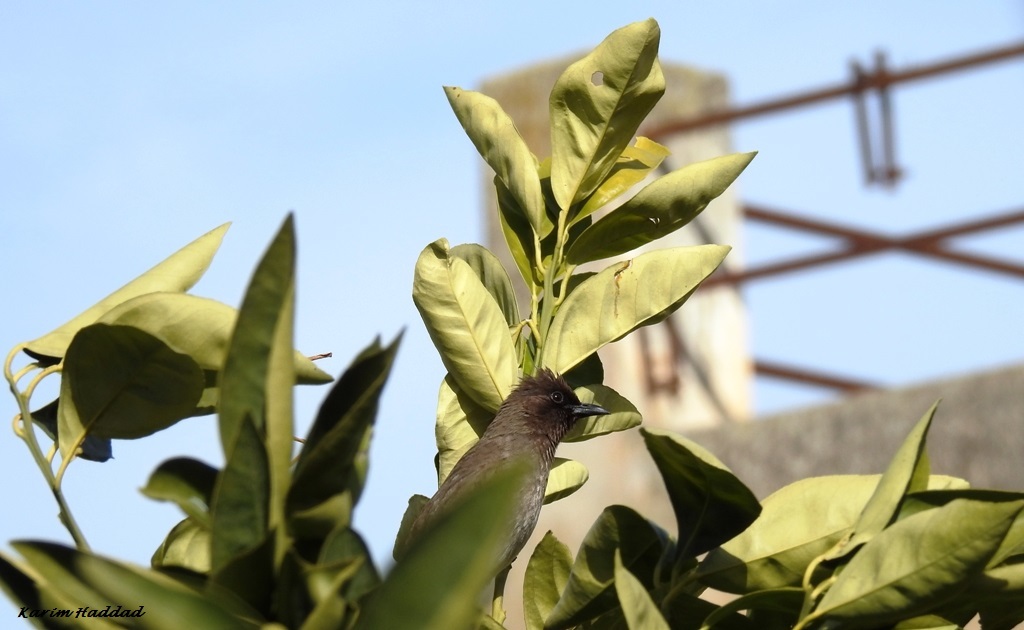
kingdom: Animalia
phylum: Chordata
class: Aves
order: Passeriformes
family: Pycnonotidae
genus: Pycnonotus
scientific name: Pycnonotus barbatus
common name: Common bulbul
